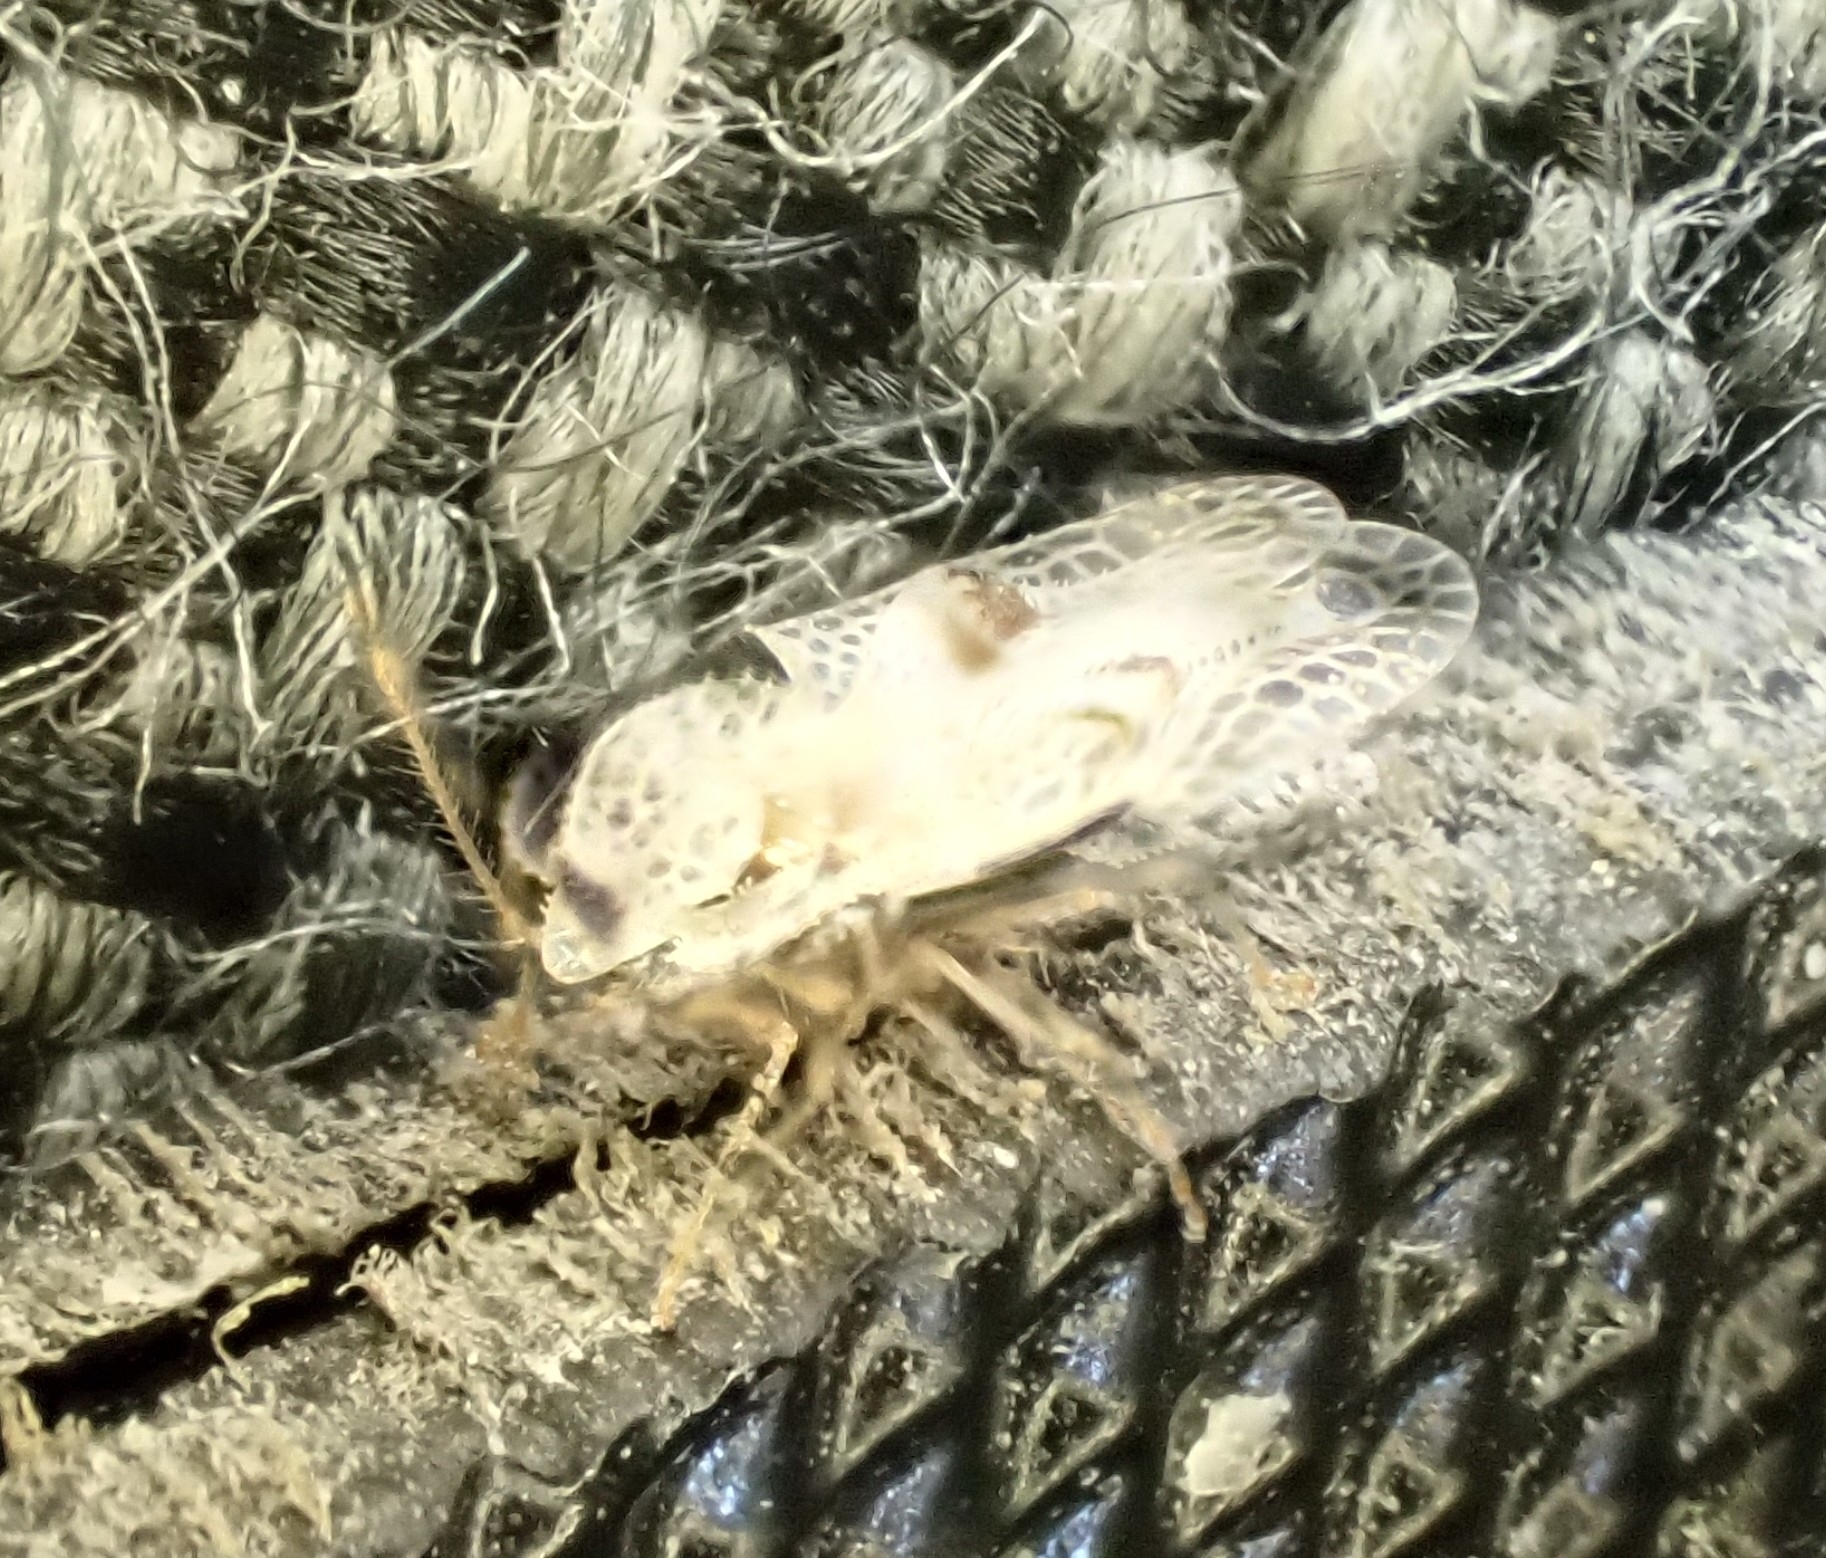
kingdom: Animalia
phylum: Arthropoda
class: Insecta
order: Hemiptera
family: Tingidae
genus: Corythucha
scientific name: Corythucha ciliata
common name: Sycamore lace bug
